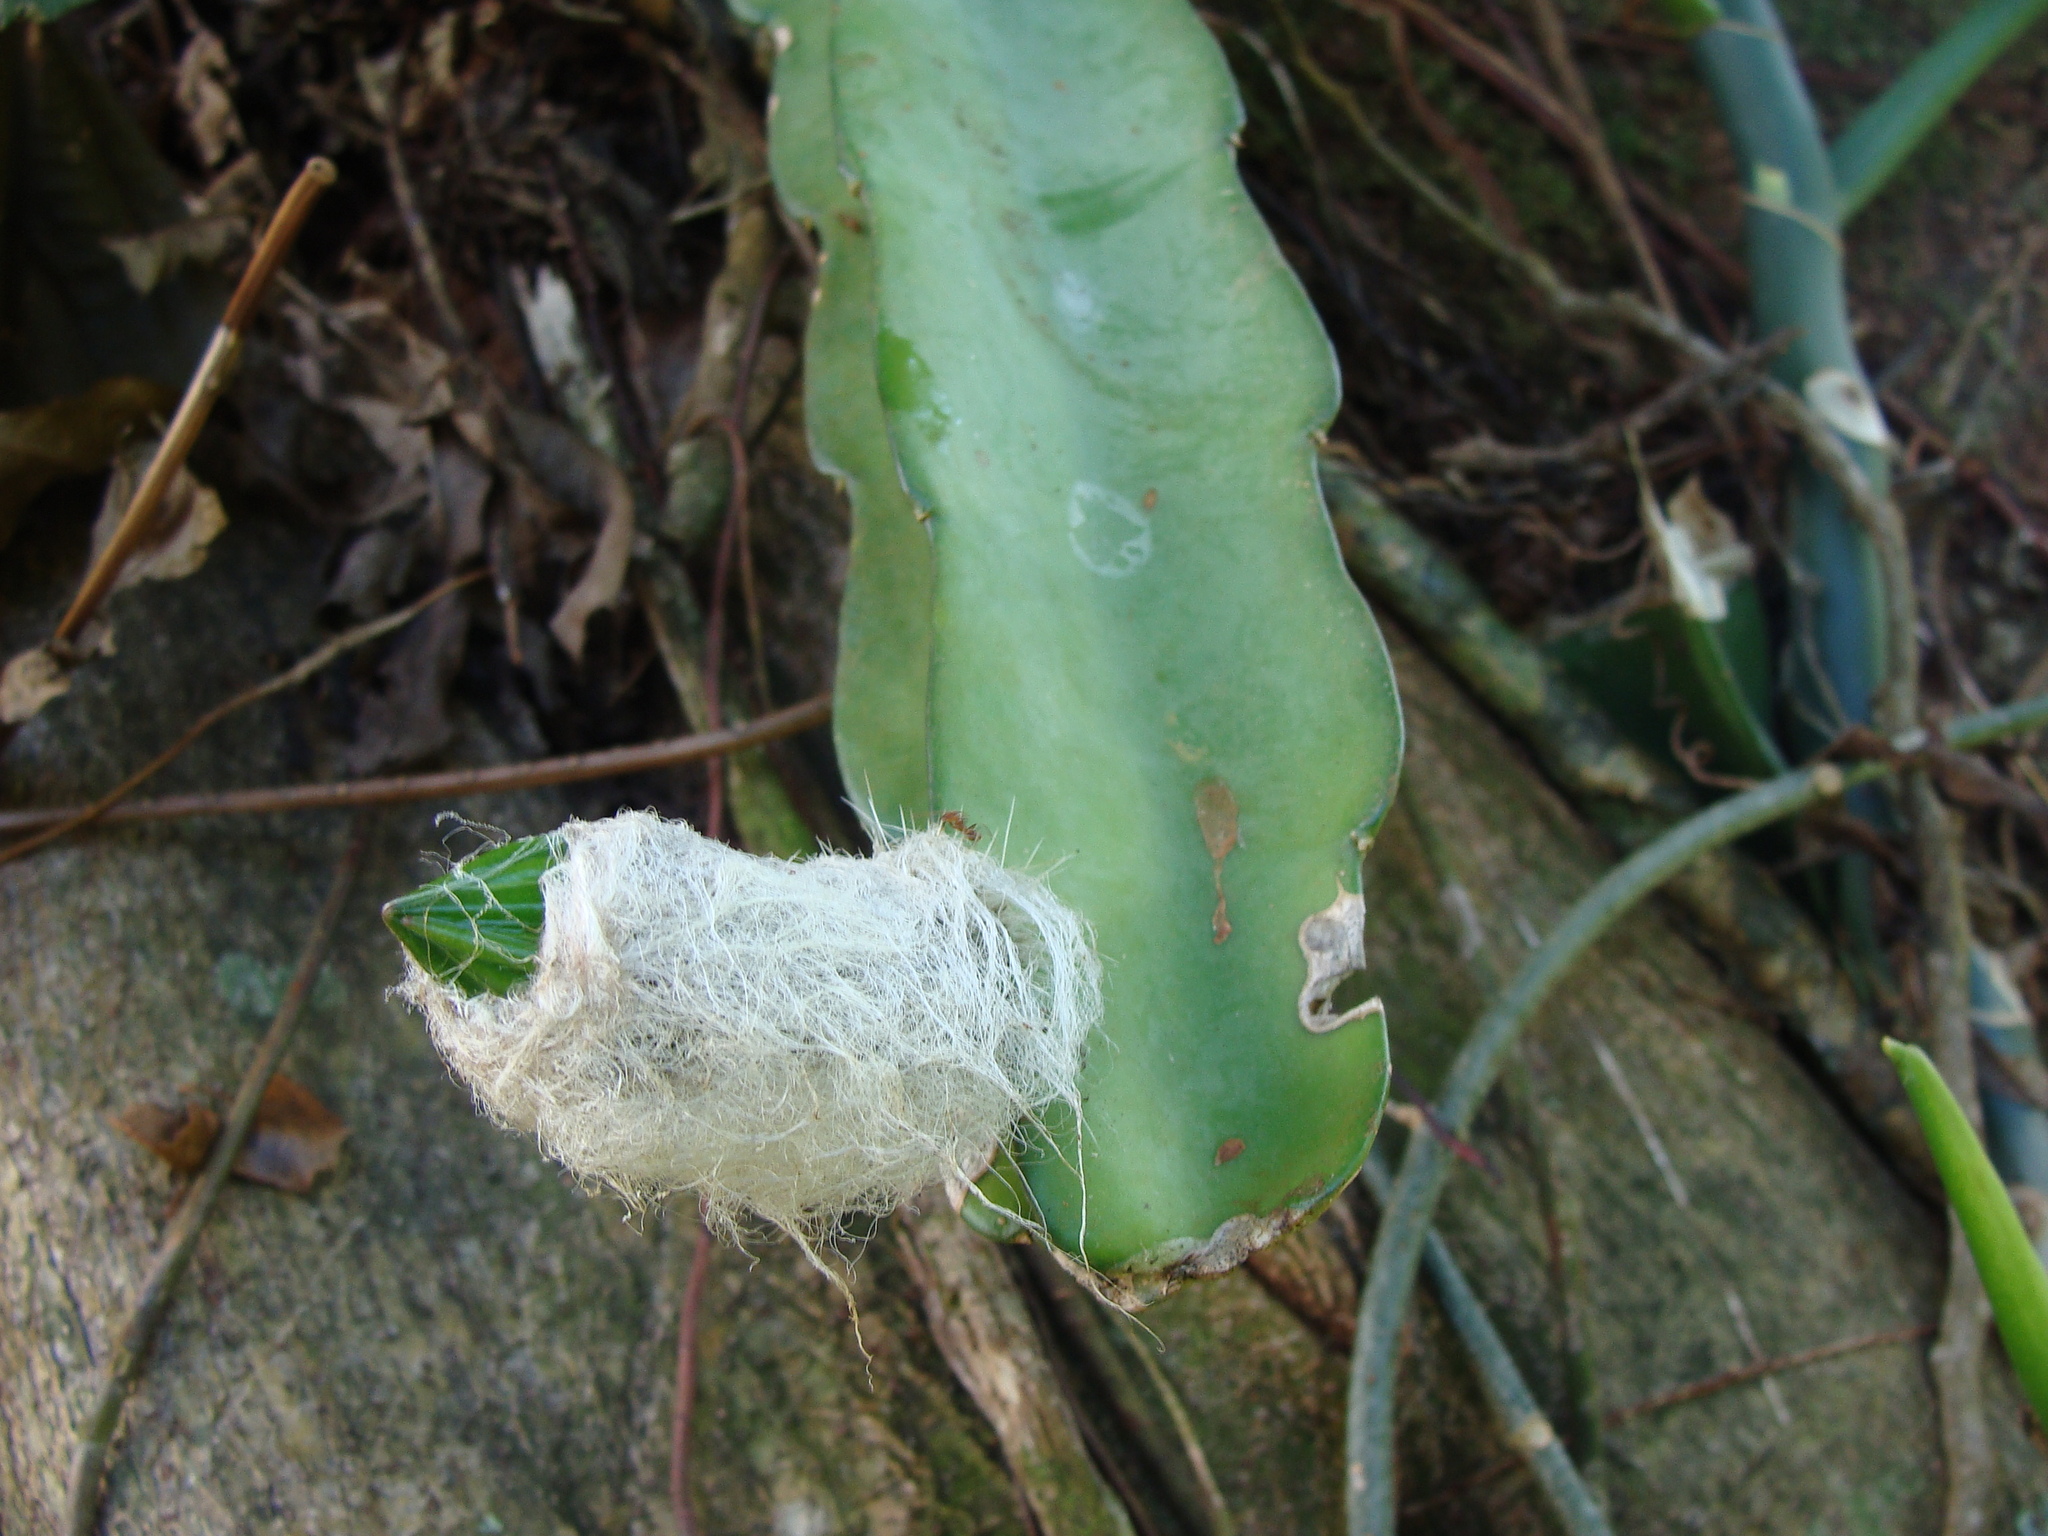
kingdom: Plantae
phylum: Tracheophyta
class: Magnoliopsida
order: Caryophyllales
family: Cactaceae
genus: Weberocereus
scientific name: Weberocereus glaber
